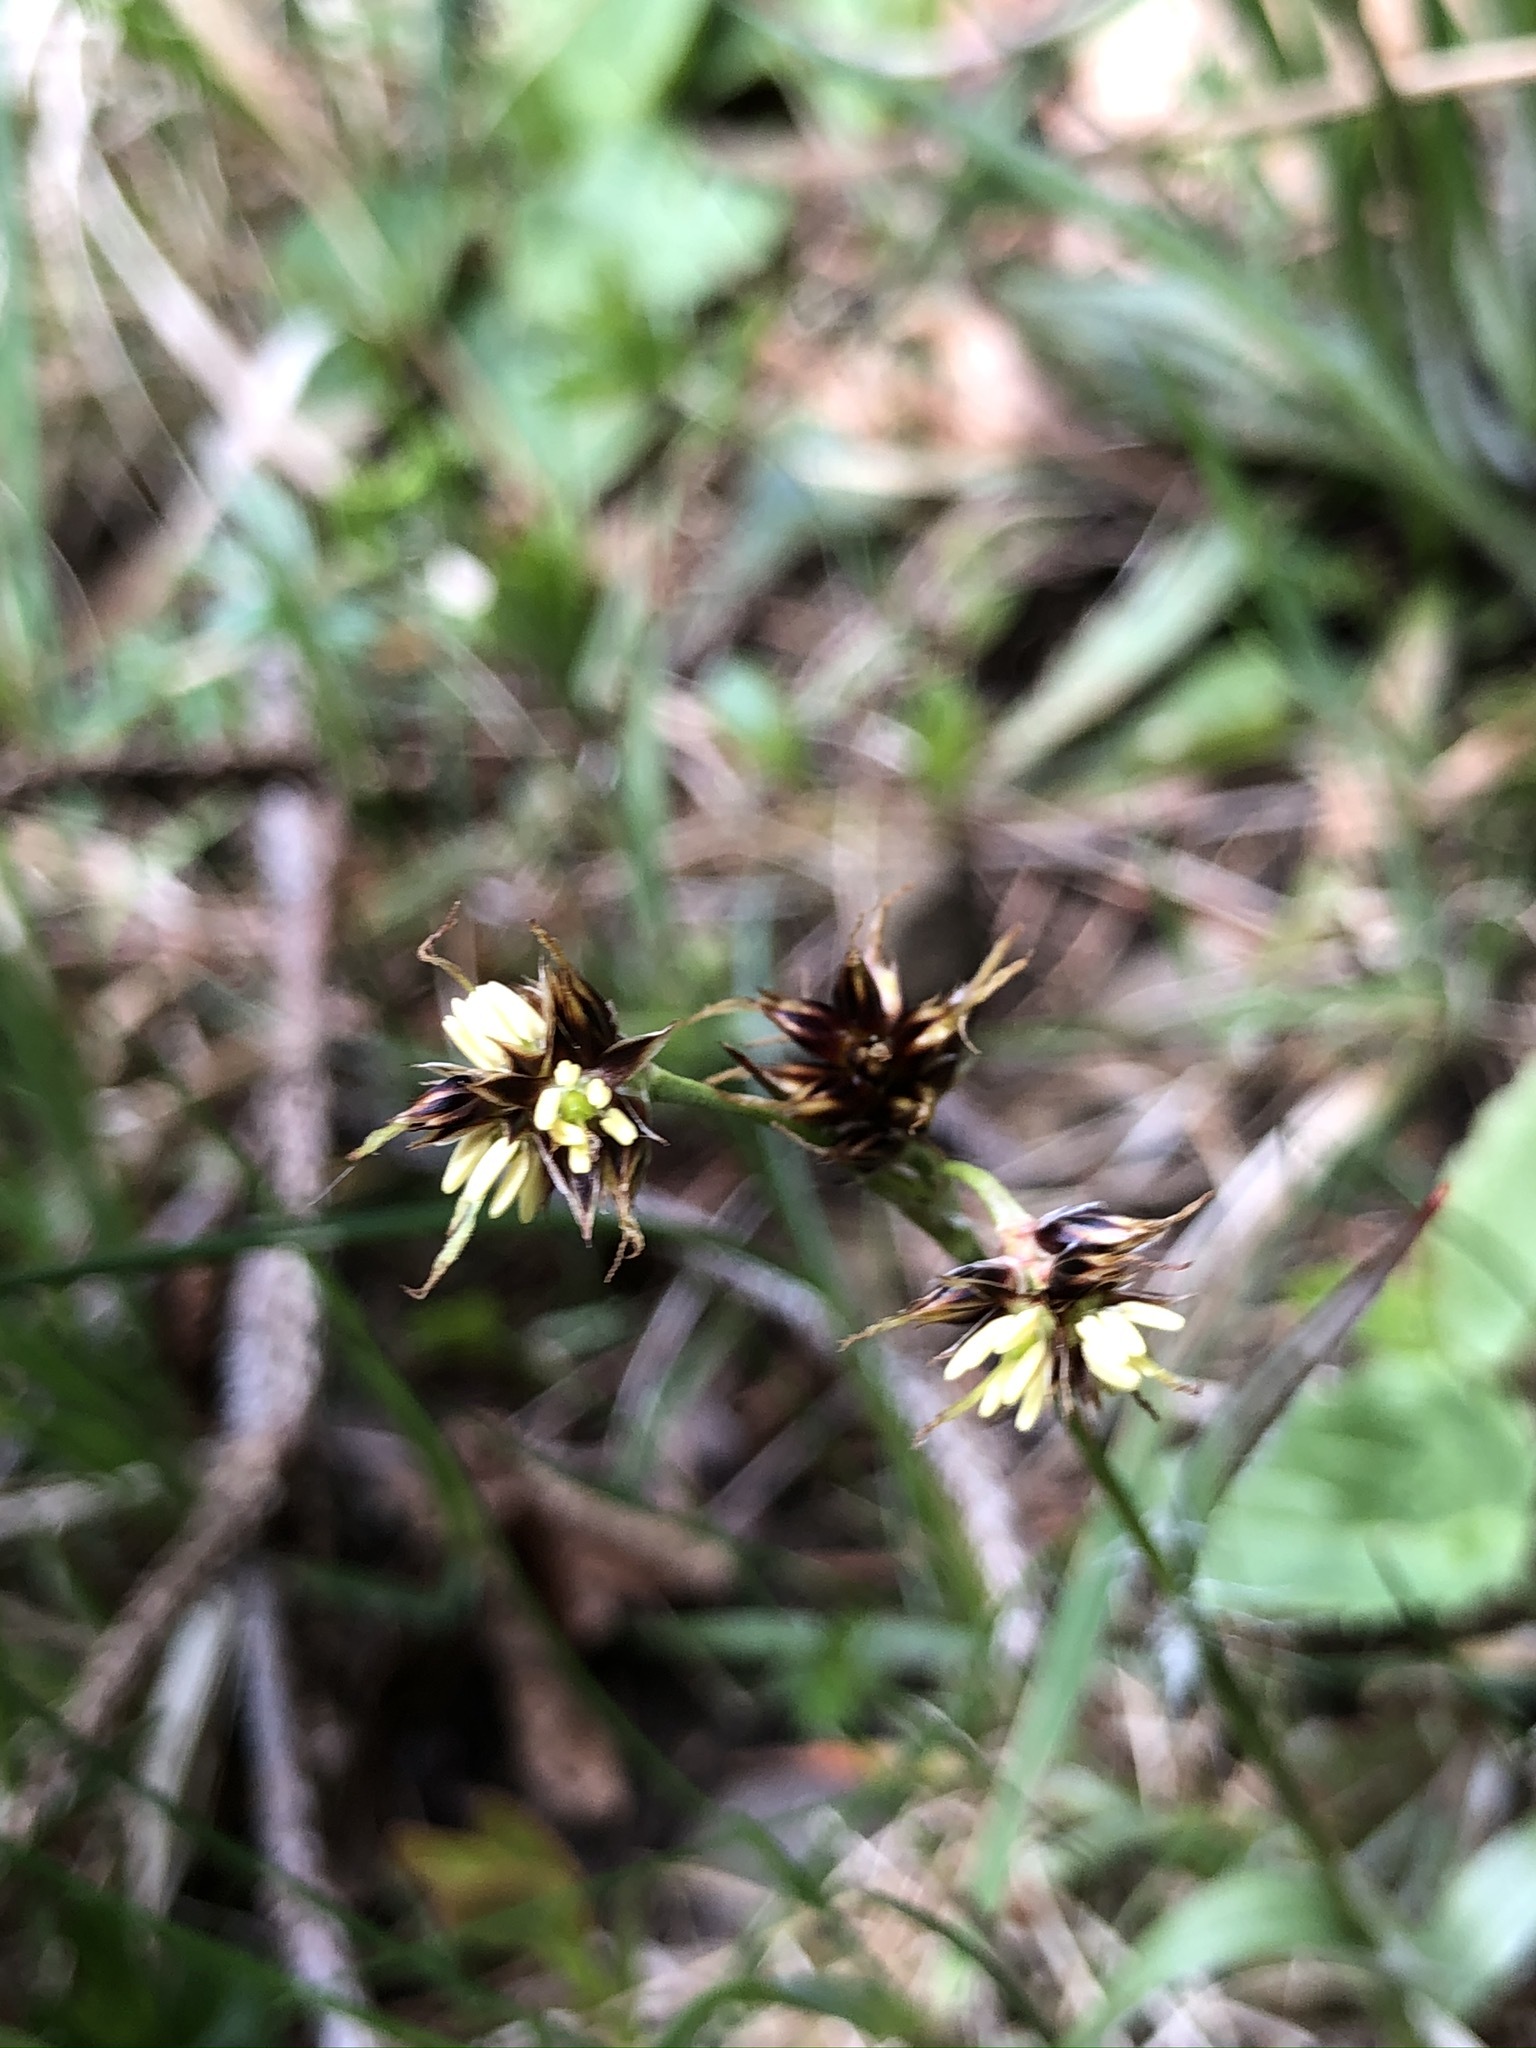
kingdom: Plantae
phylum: Tracheophyta
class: Liliopsida
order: Poales
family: Juncaceae
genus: Luzula
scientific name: Luzula campestris
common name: Field wood-rush
